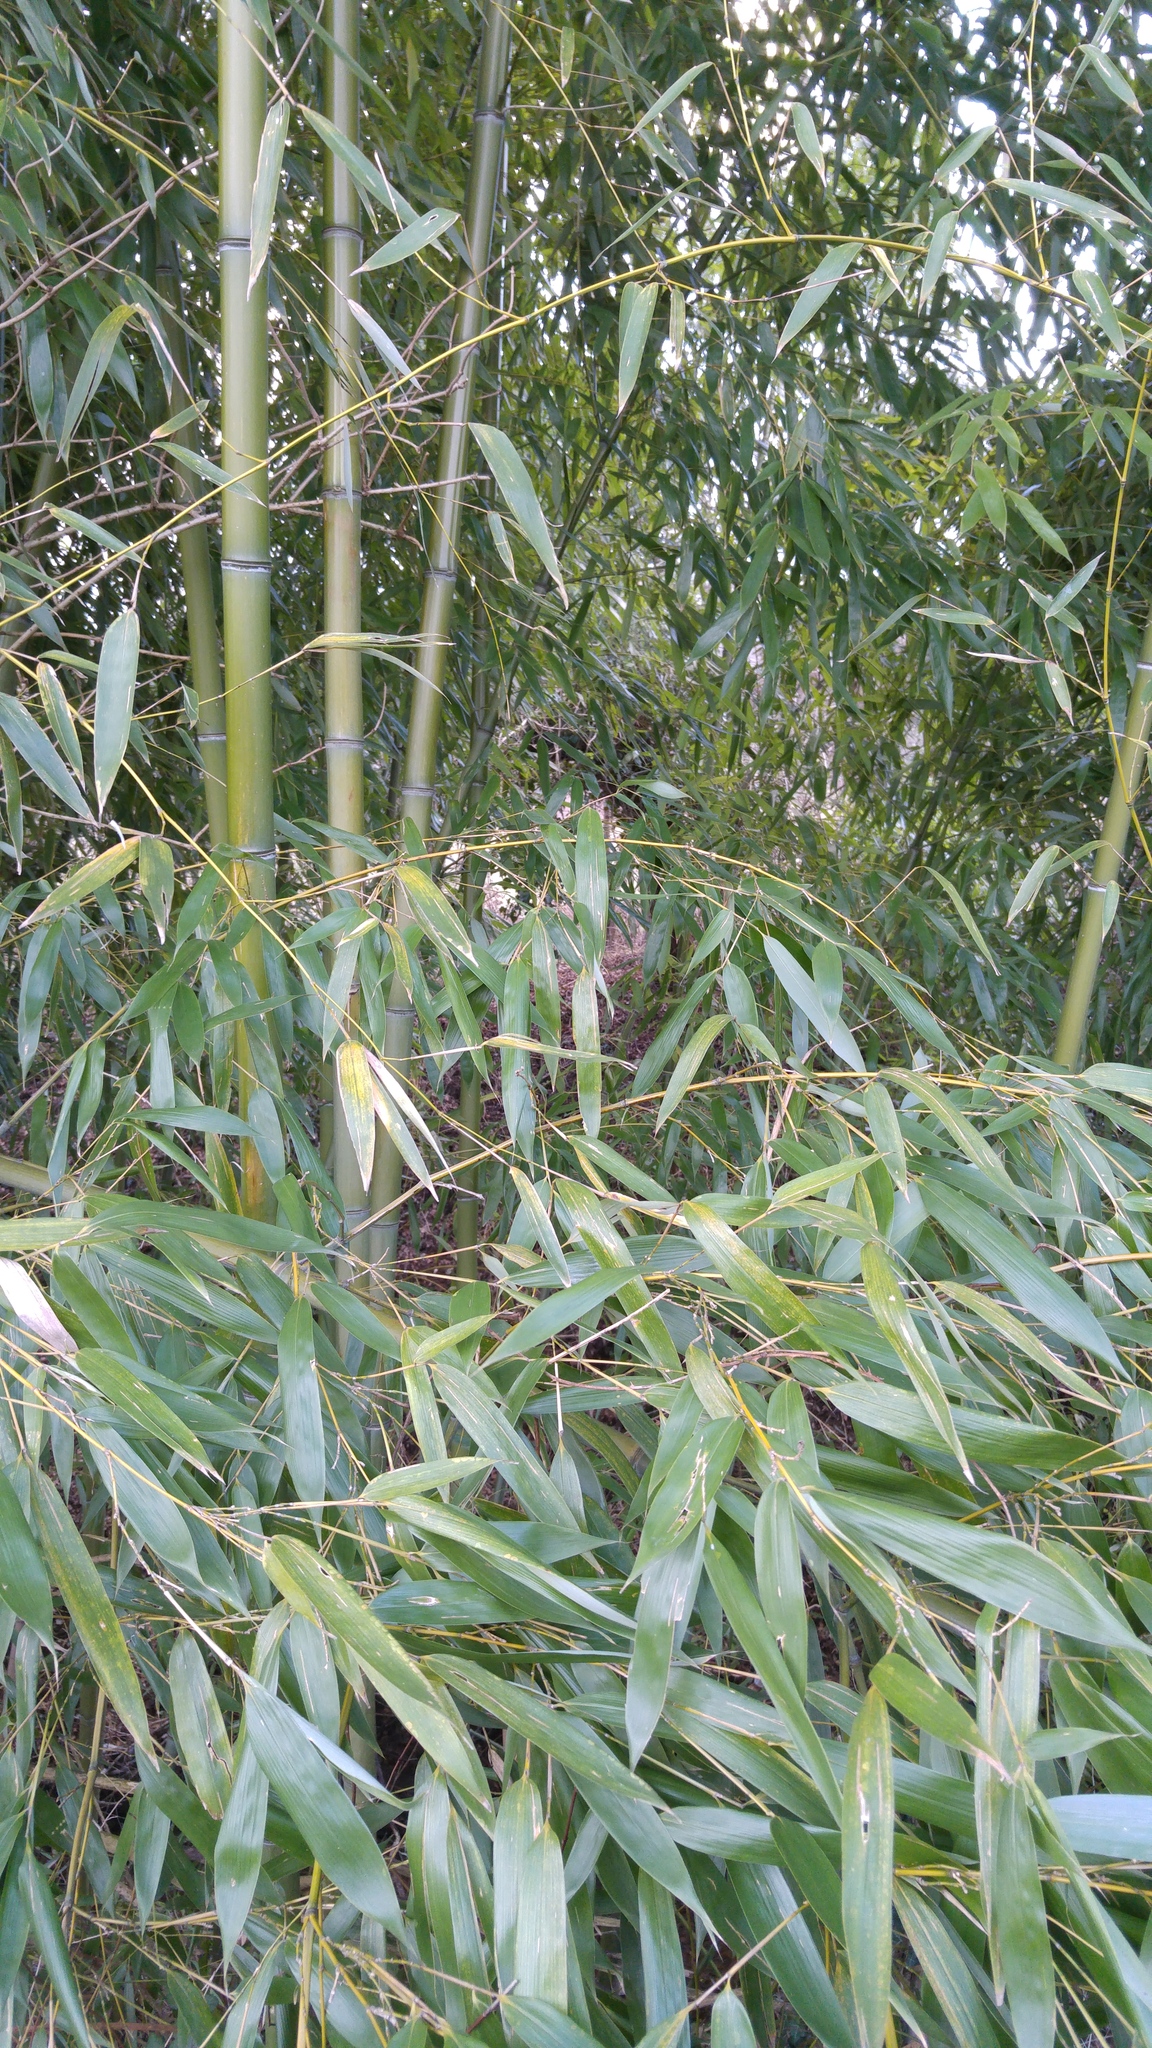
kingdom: Plantae
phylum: Tracheophyta
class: Liliopsida
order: Poales
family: Poaceae
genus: Phyllostachys
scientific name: Phyllostachys reticulata
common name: Bamboo
